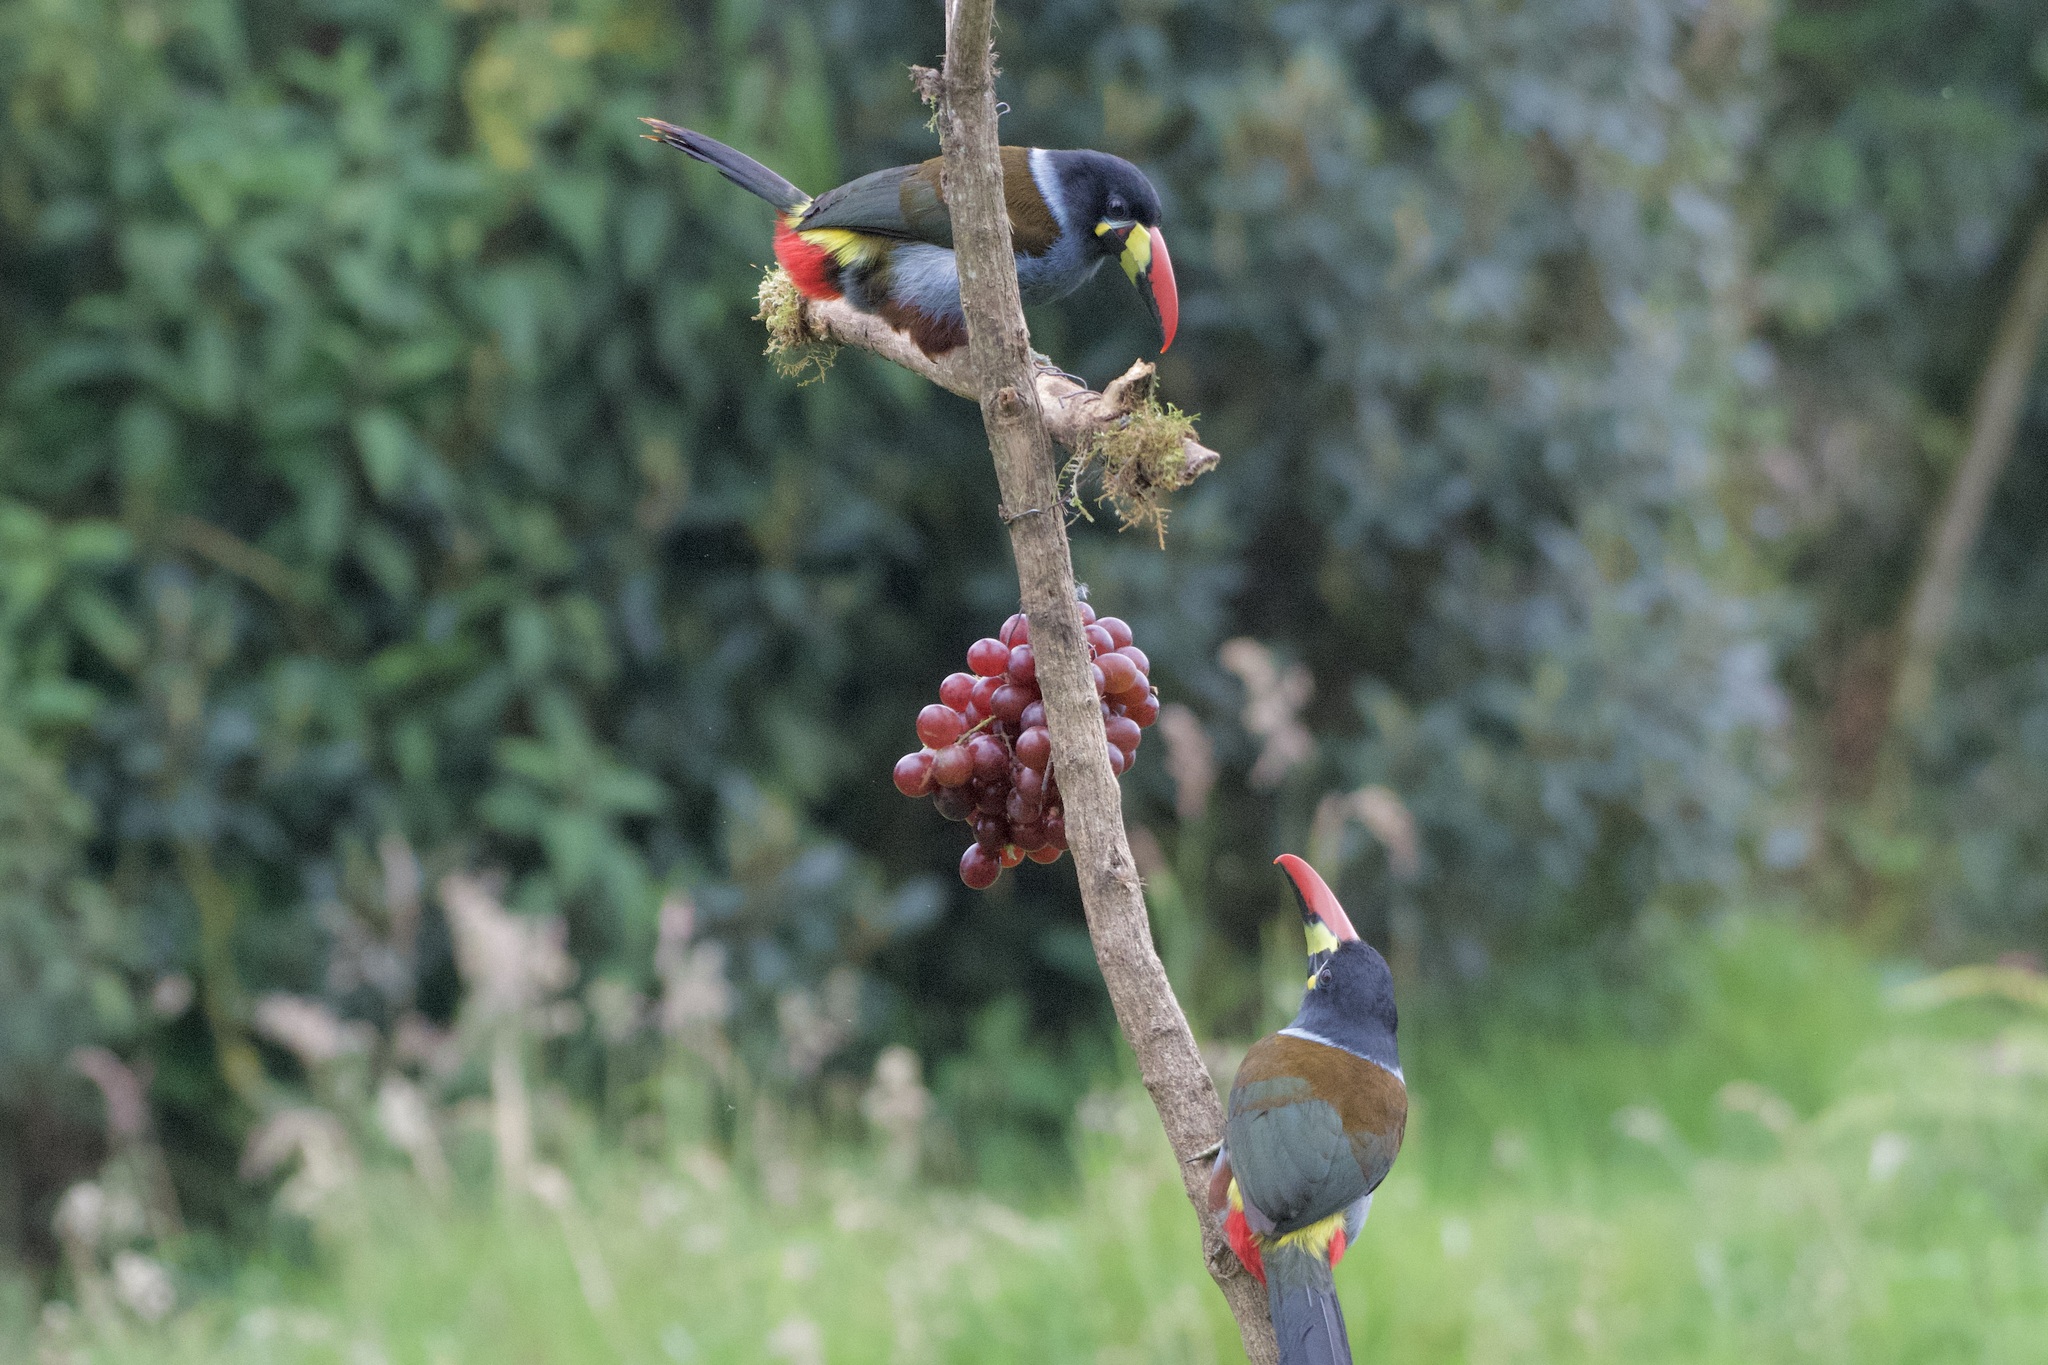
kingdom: Animalia
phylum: Chordata
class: Aves
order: Piciformes
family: Ramphastidae
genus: Andigena
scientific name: Andigena hypoglauca
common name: Grey-breasted mountain toucan
